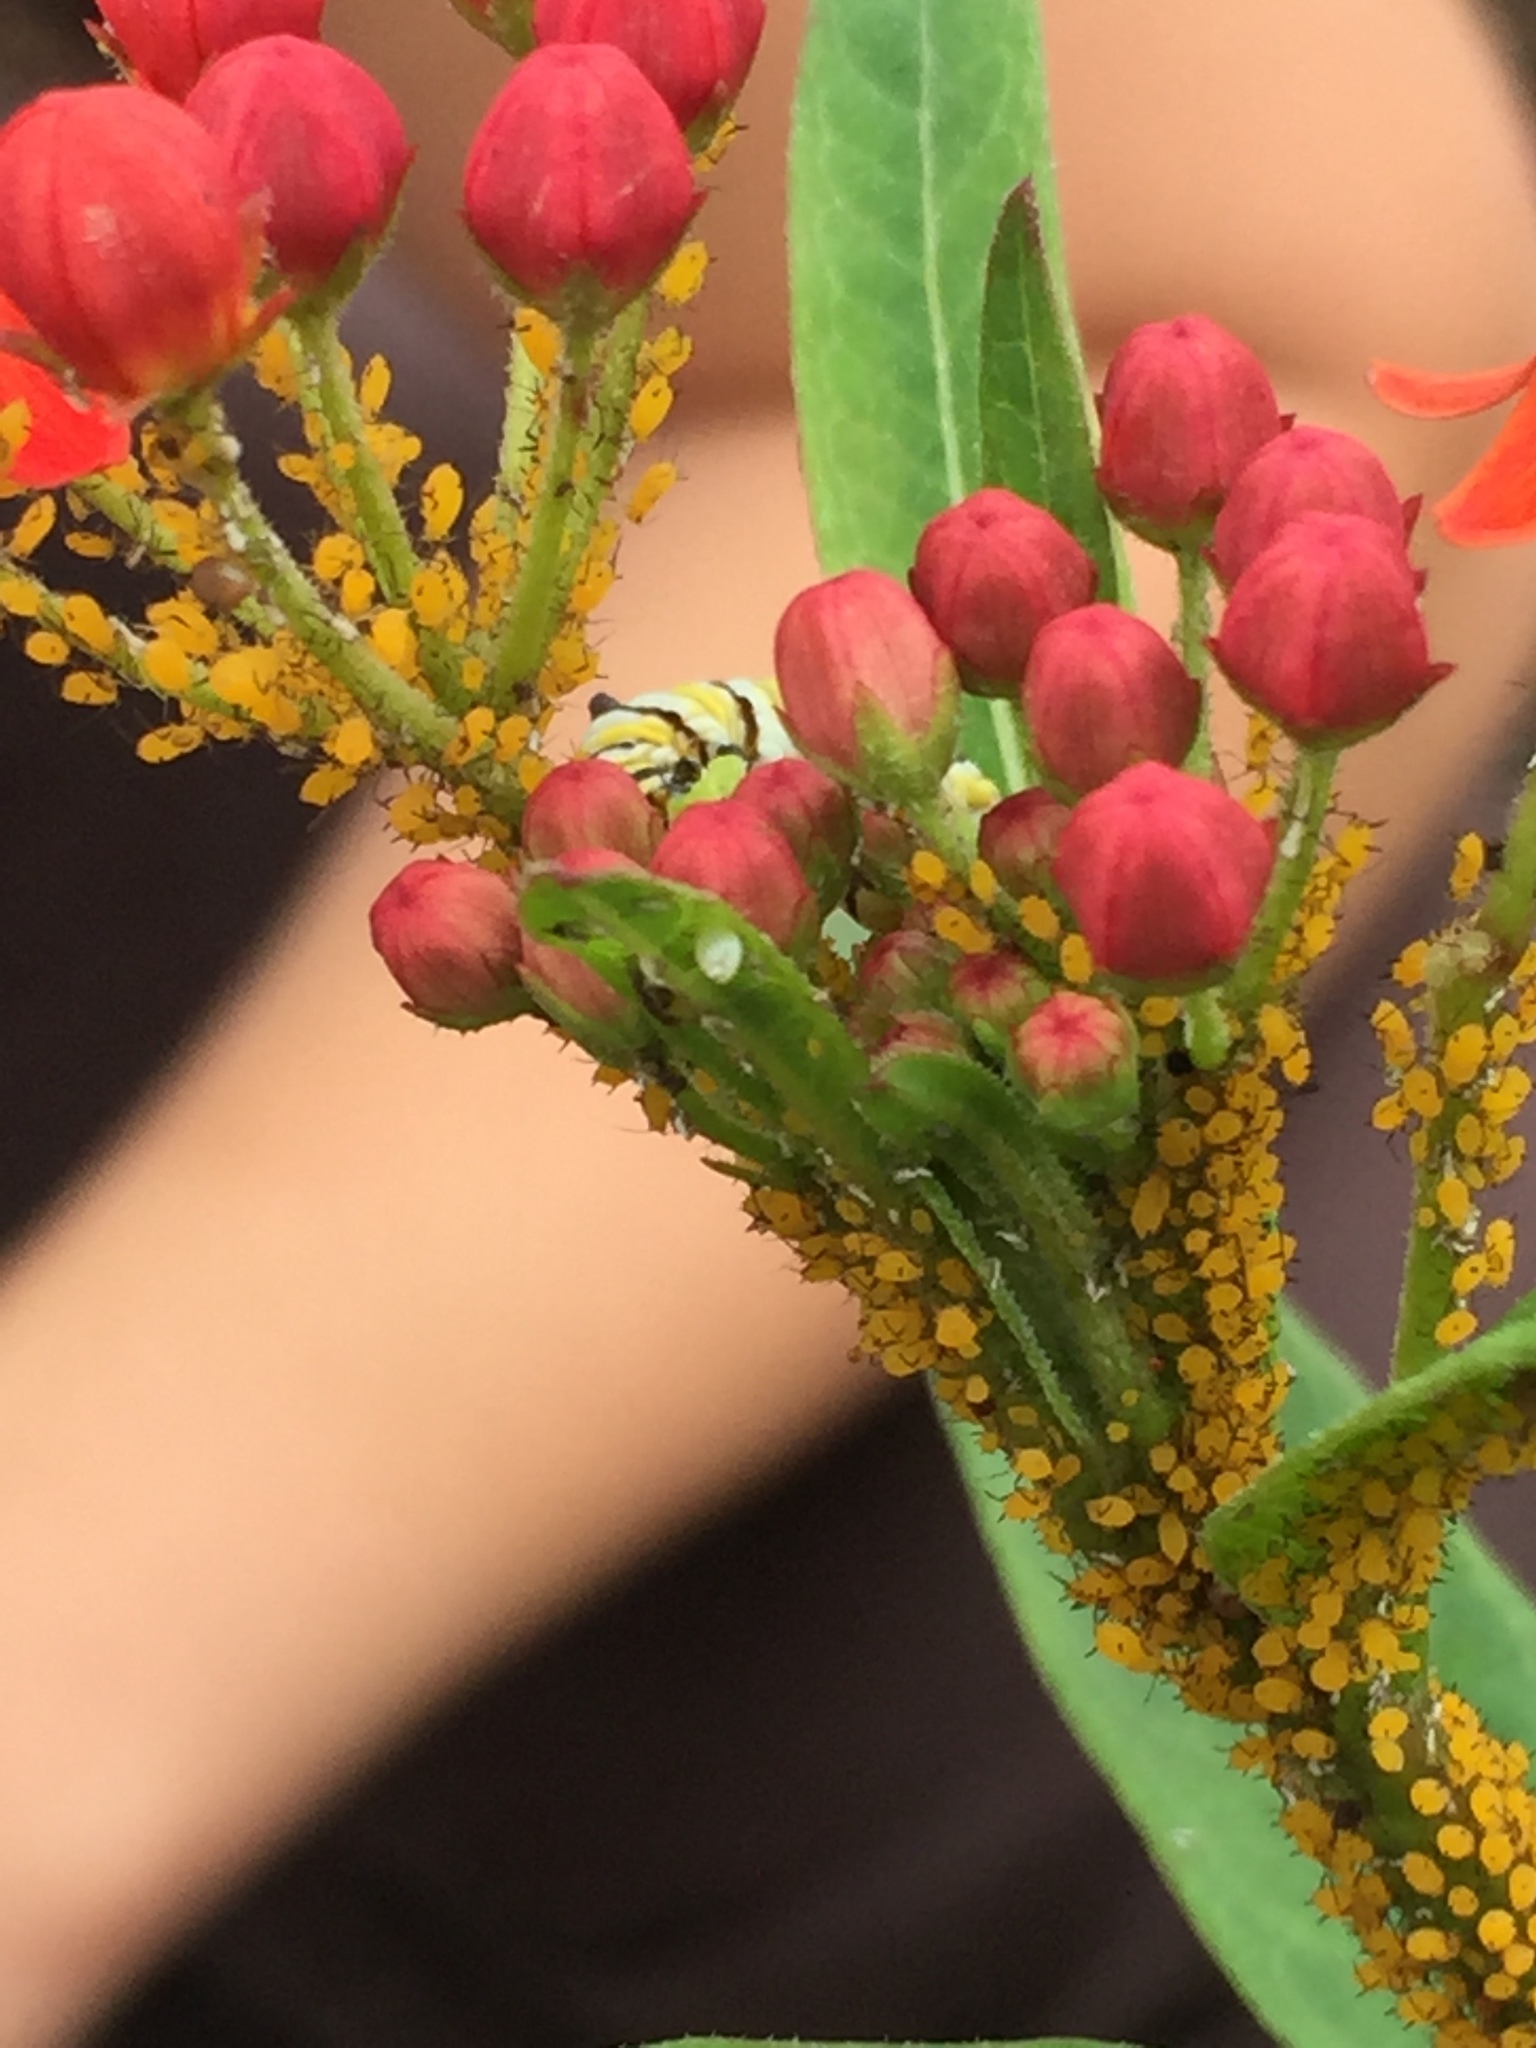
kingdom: Animalia
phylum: Arthropoda
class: Insecta
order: Hemiptera
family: Aphididae
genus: Aphis
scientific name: Aphis nerii
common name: Oleander aphid
